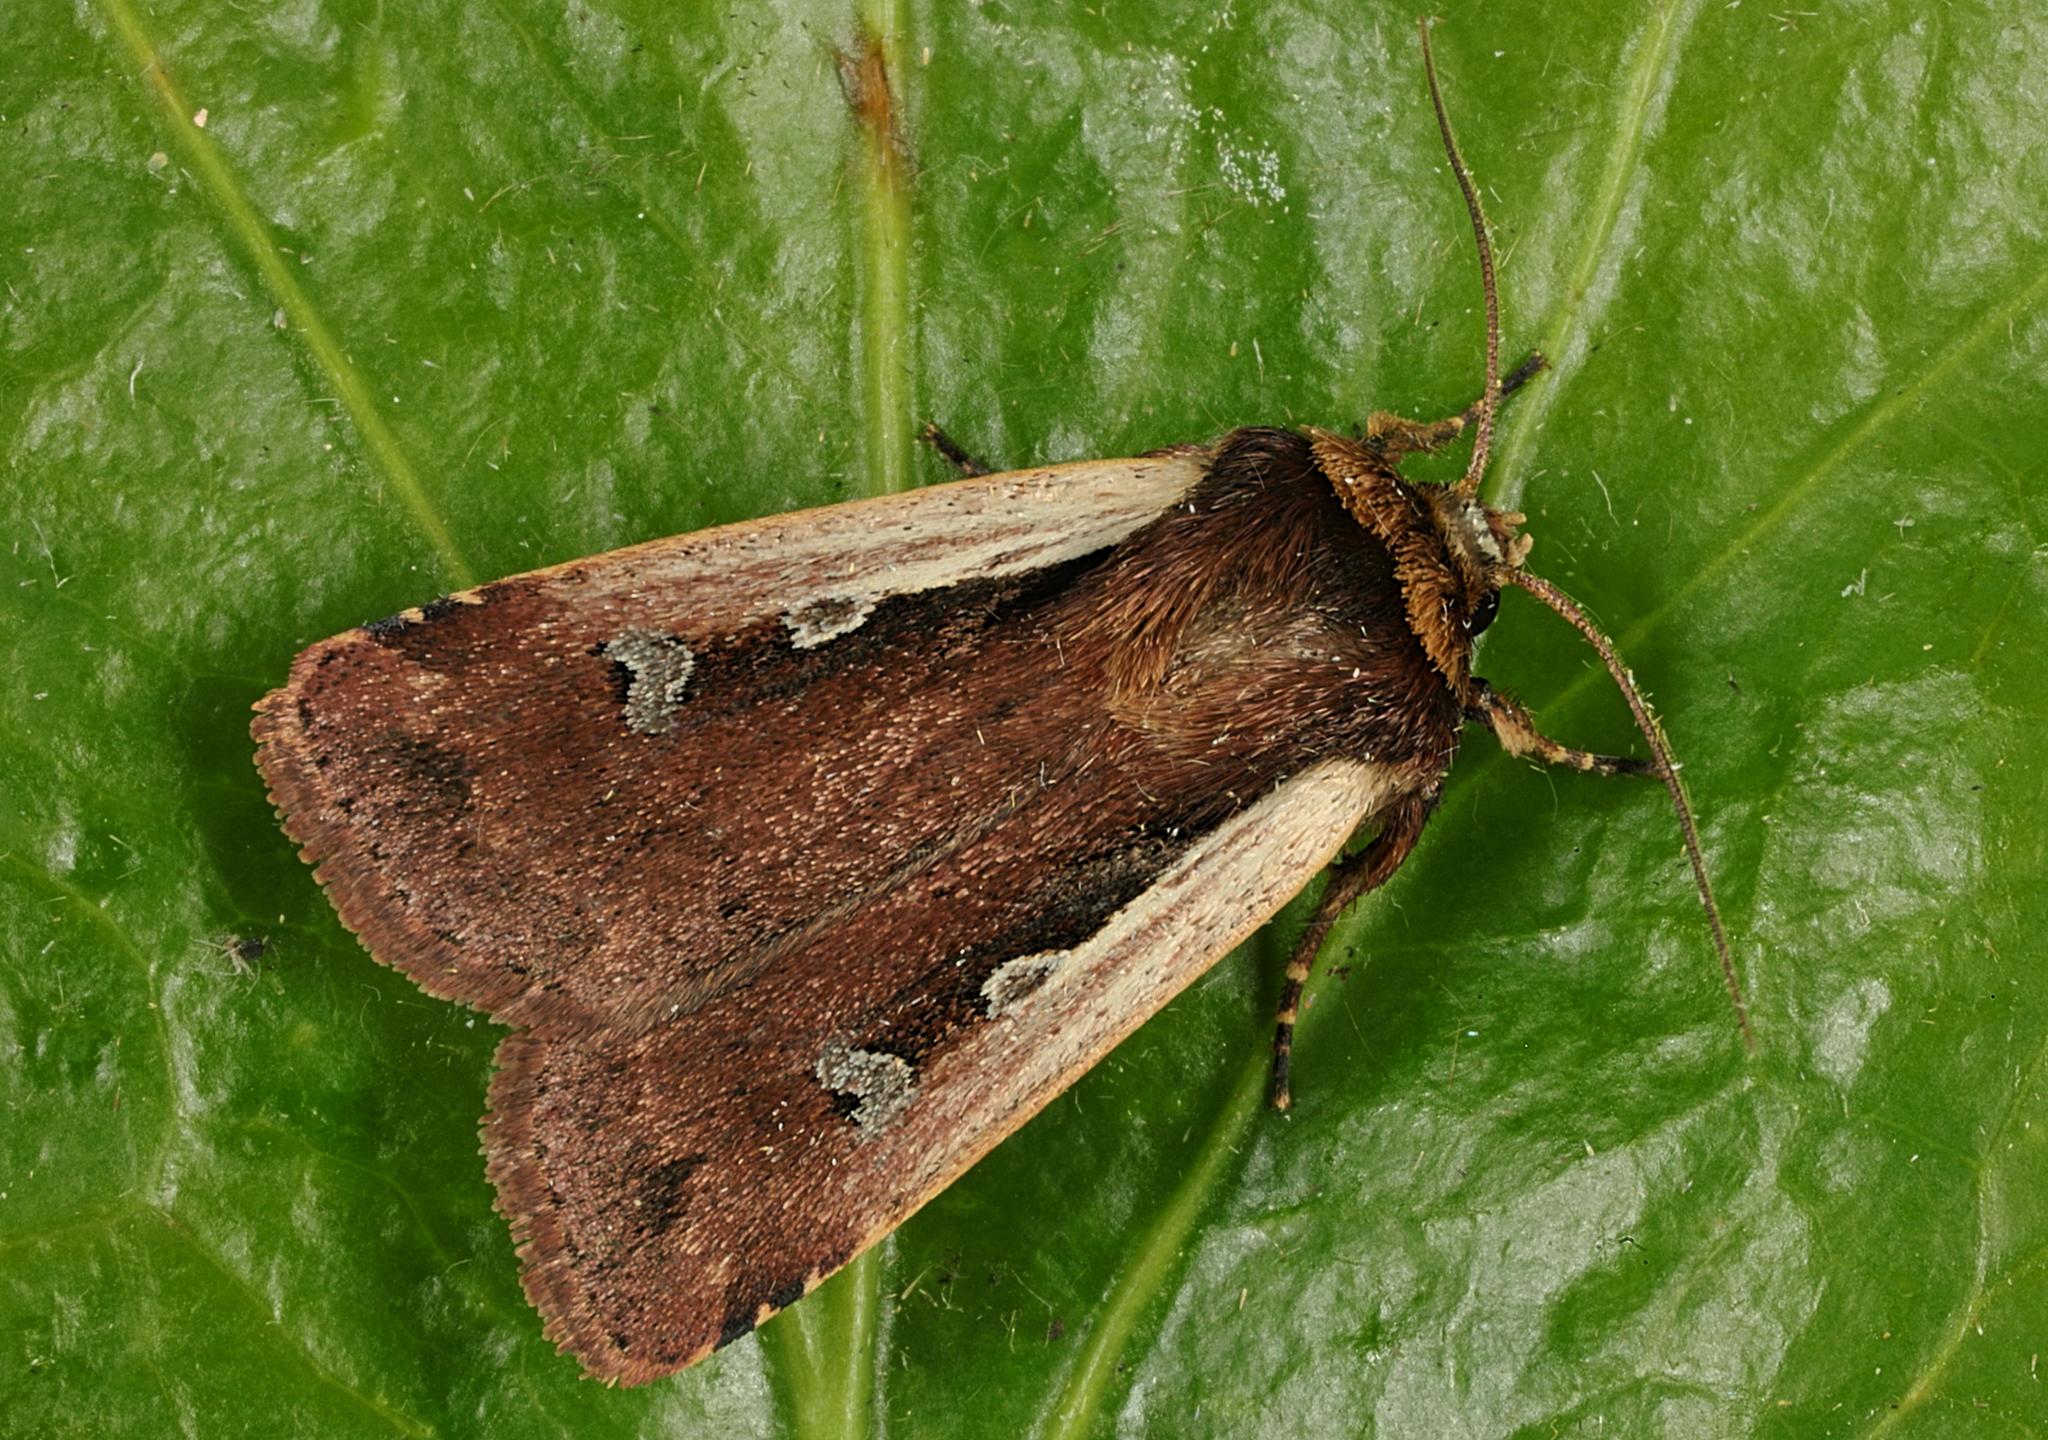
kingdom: Animalia
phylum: Arthropoda
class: Insecta
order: Lepidoptera
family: Noctuidae
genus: Ochropleura
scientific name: Ochropleura plecta
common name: Flame shoulder
